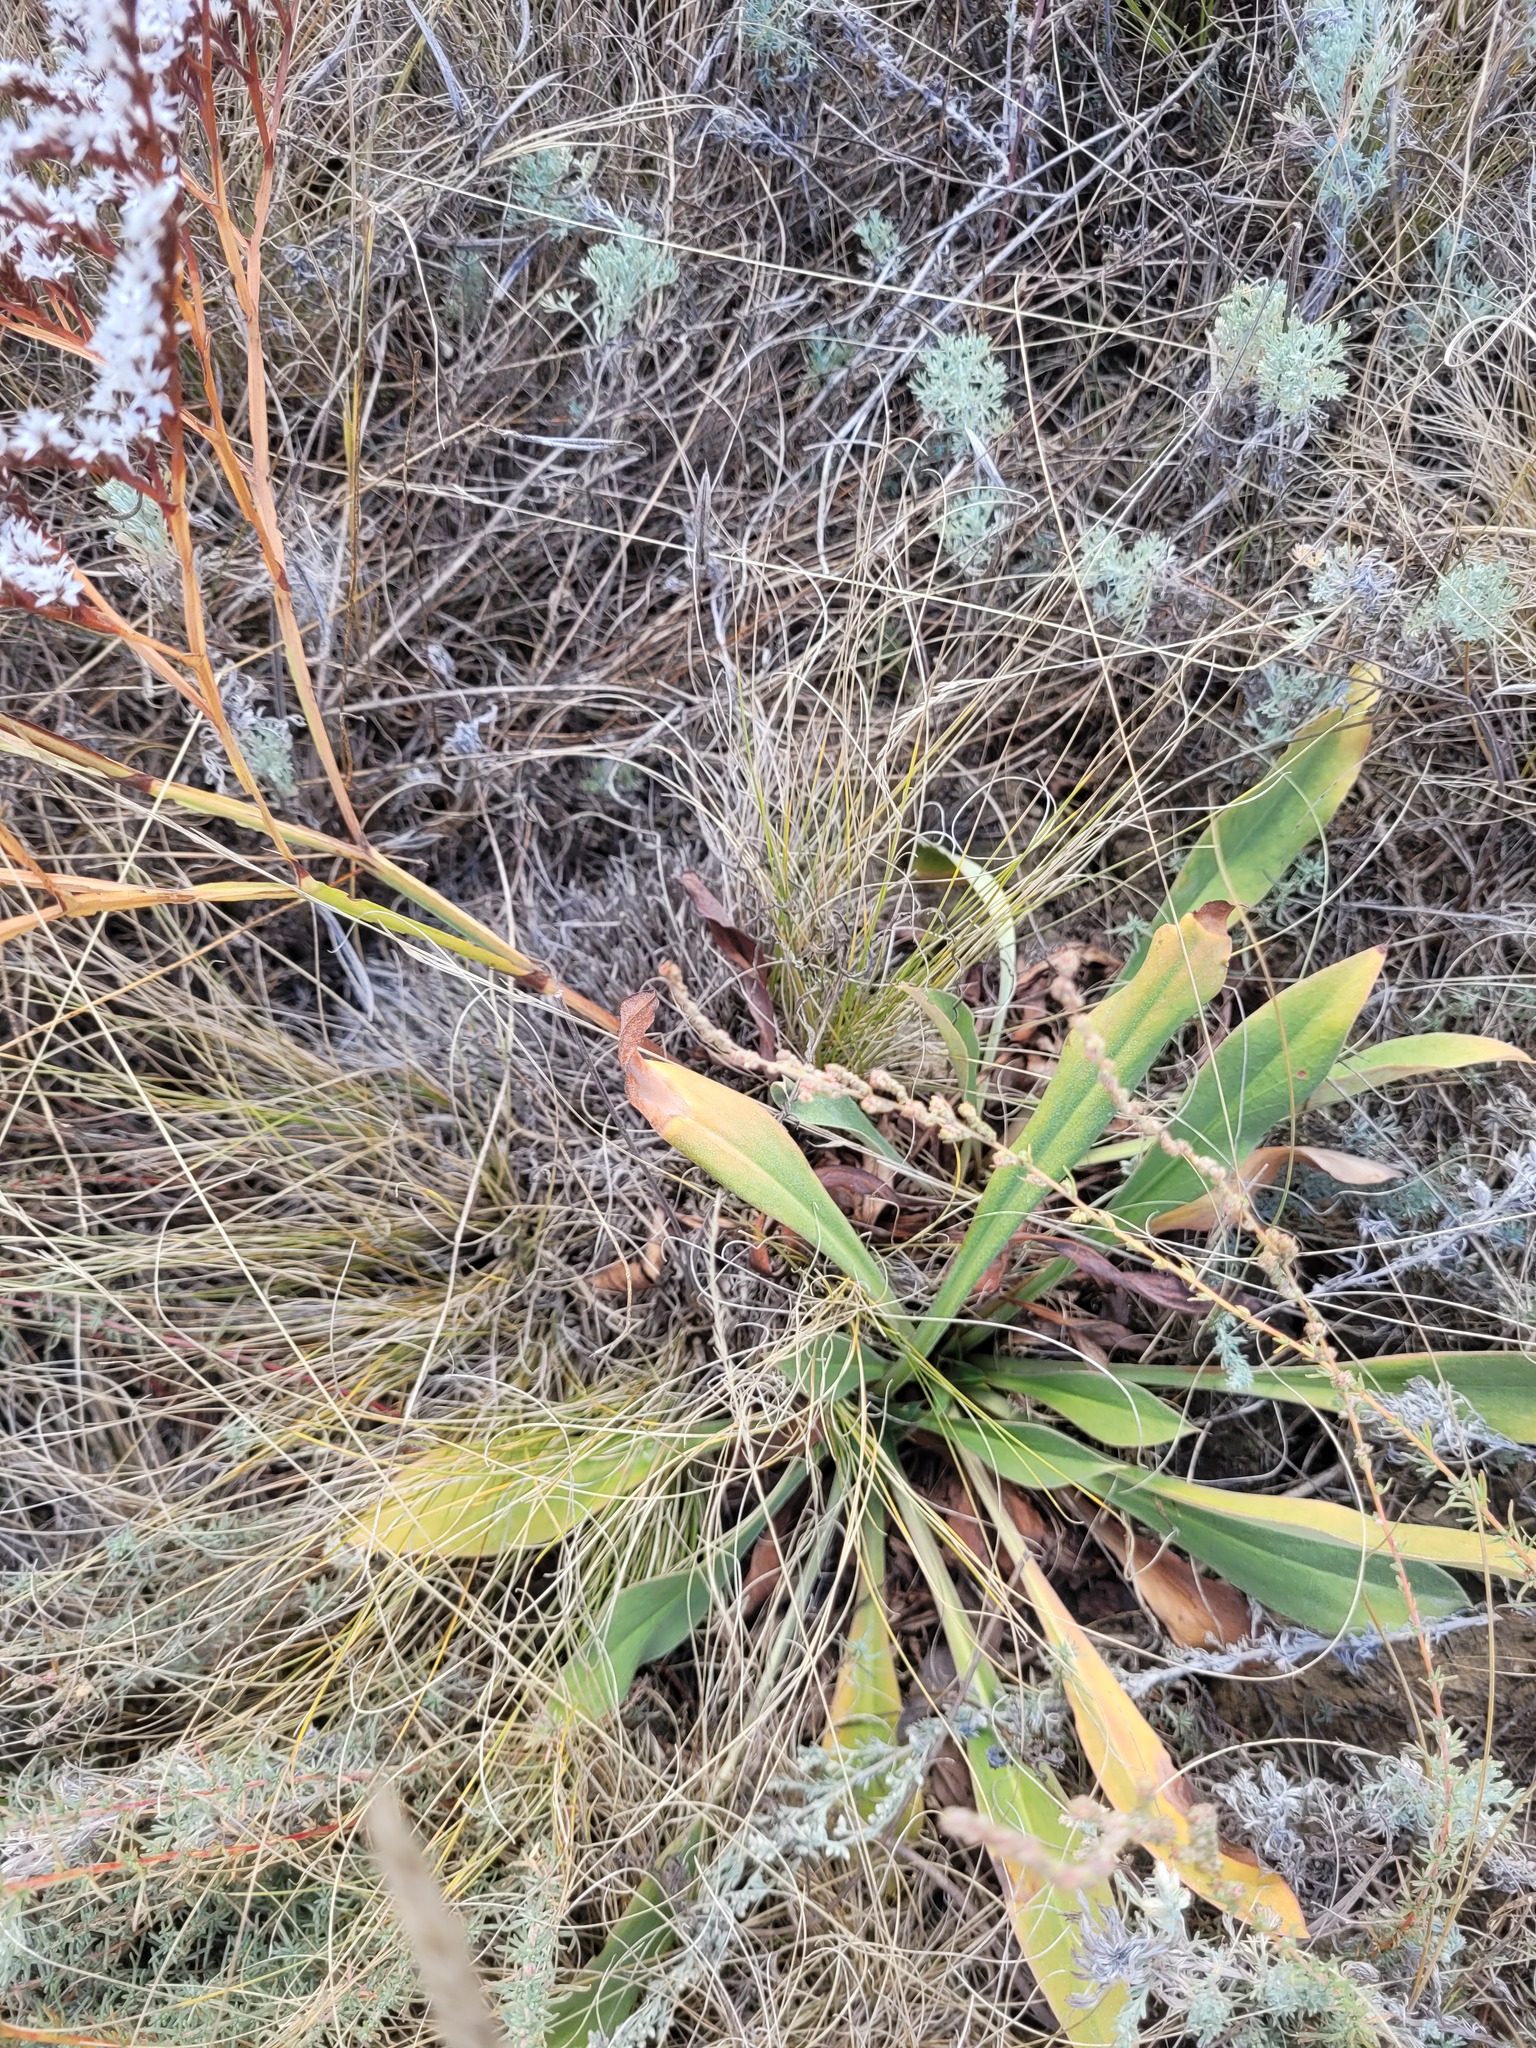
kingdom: Plantae
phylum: Tracheophyta
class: Magnoliopsida
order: Caryophyllales
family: Plumbaginaceae
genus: Goniolimon
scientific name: Goniolimon tataricum
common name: Statice
